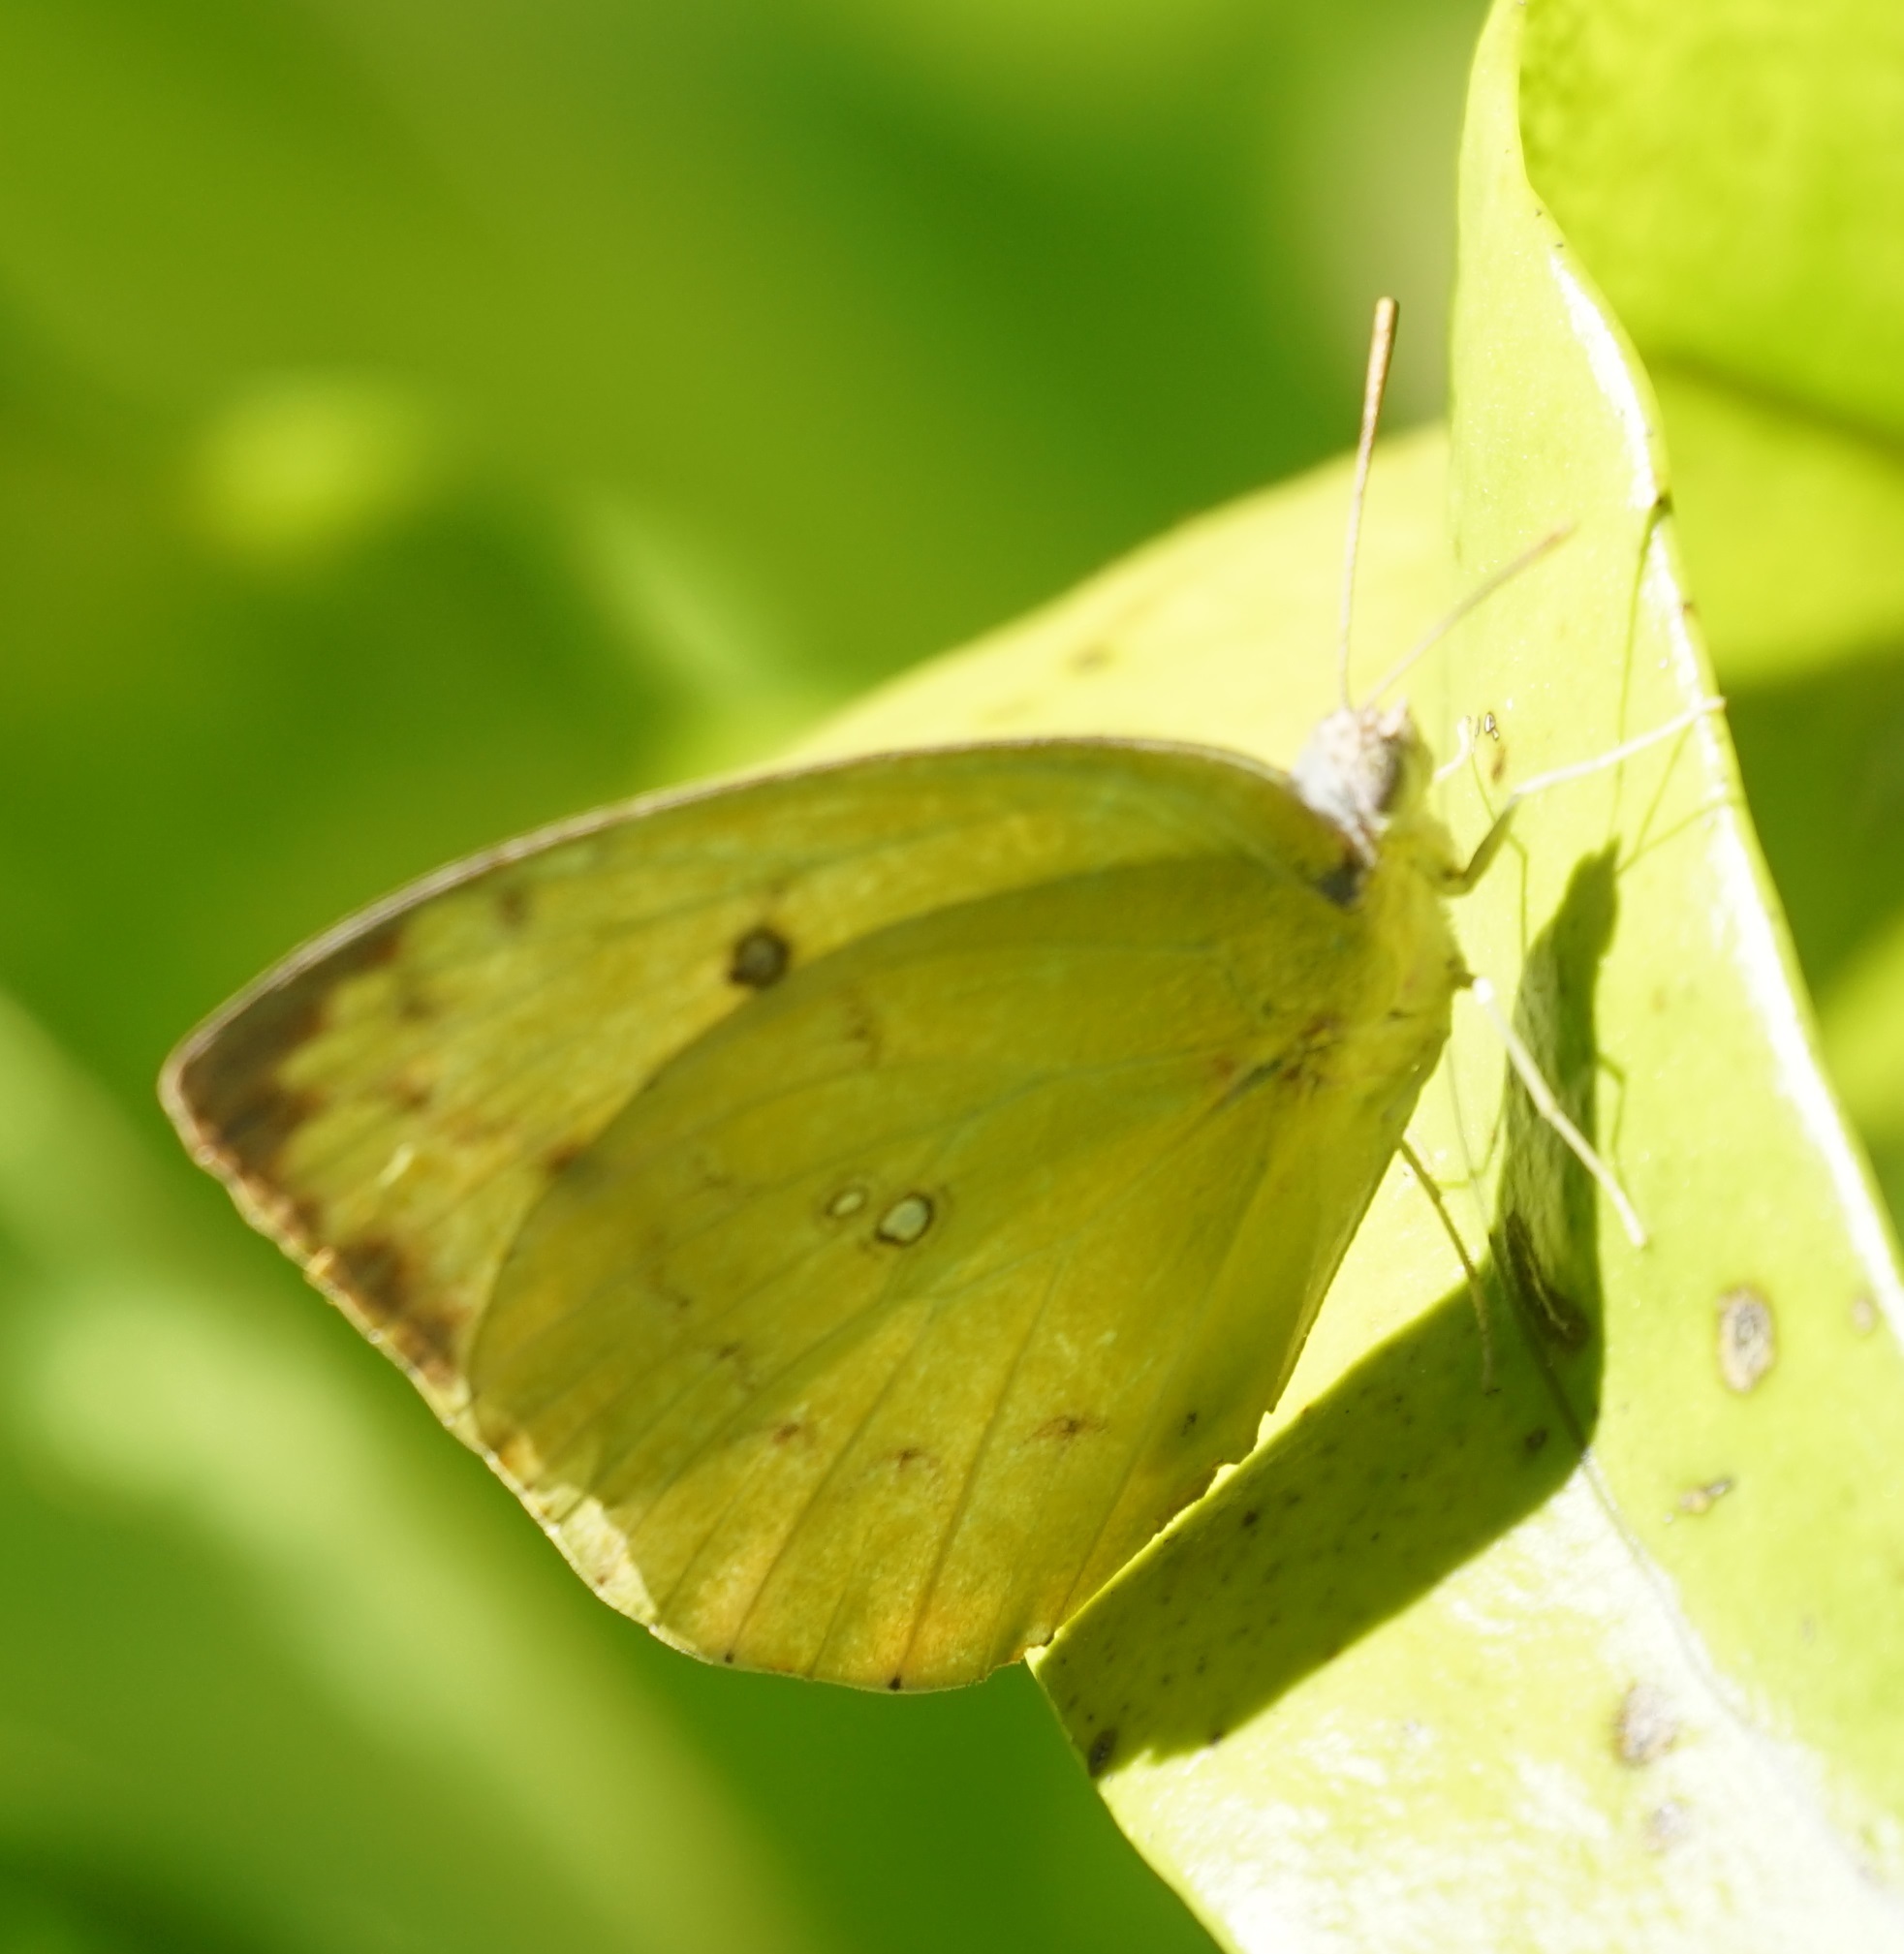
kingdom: Animalia
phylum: Arthropoda
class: Insecta
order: Lepidoptera
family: Pieridae
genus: Catopsilia
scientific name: Catopsilia pomona
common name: Common emigrant
